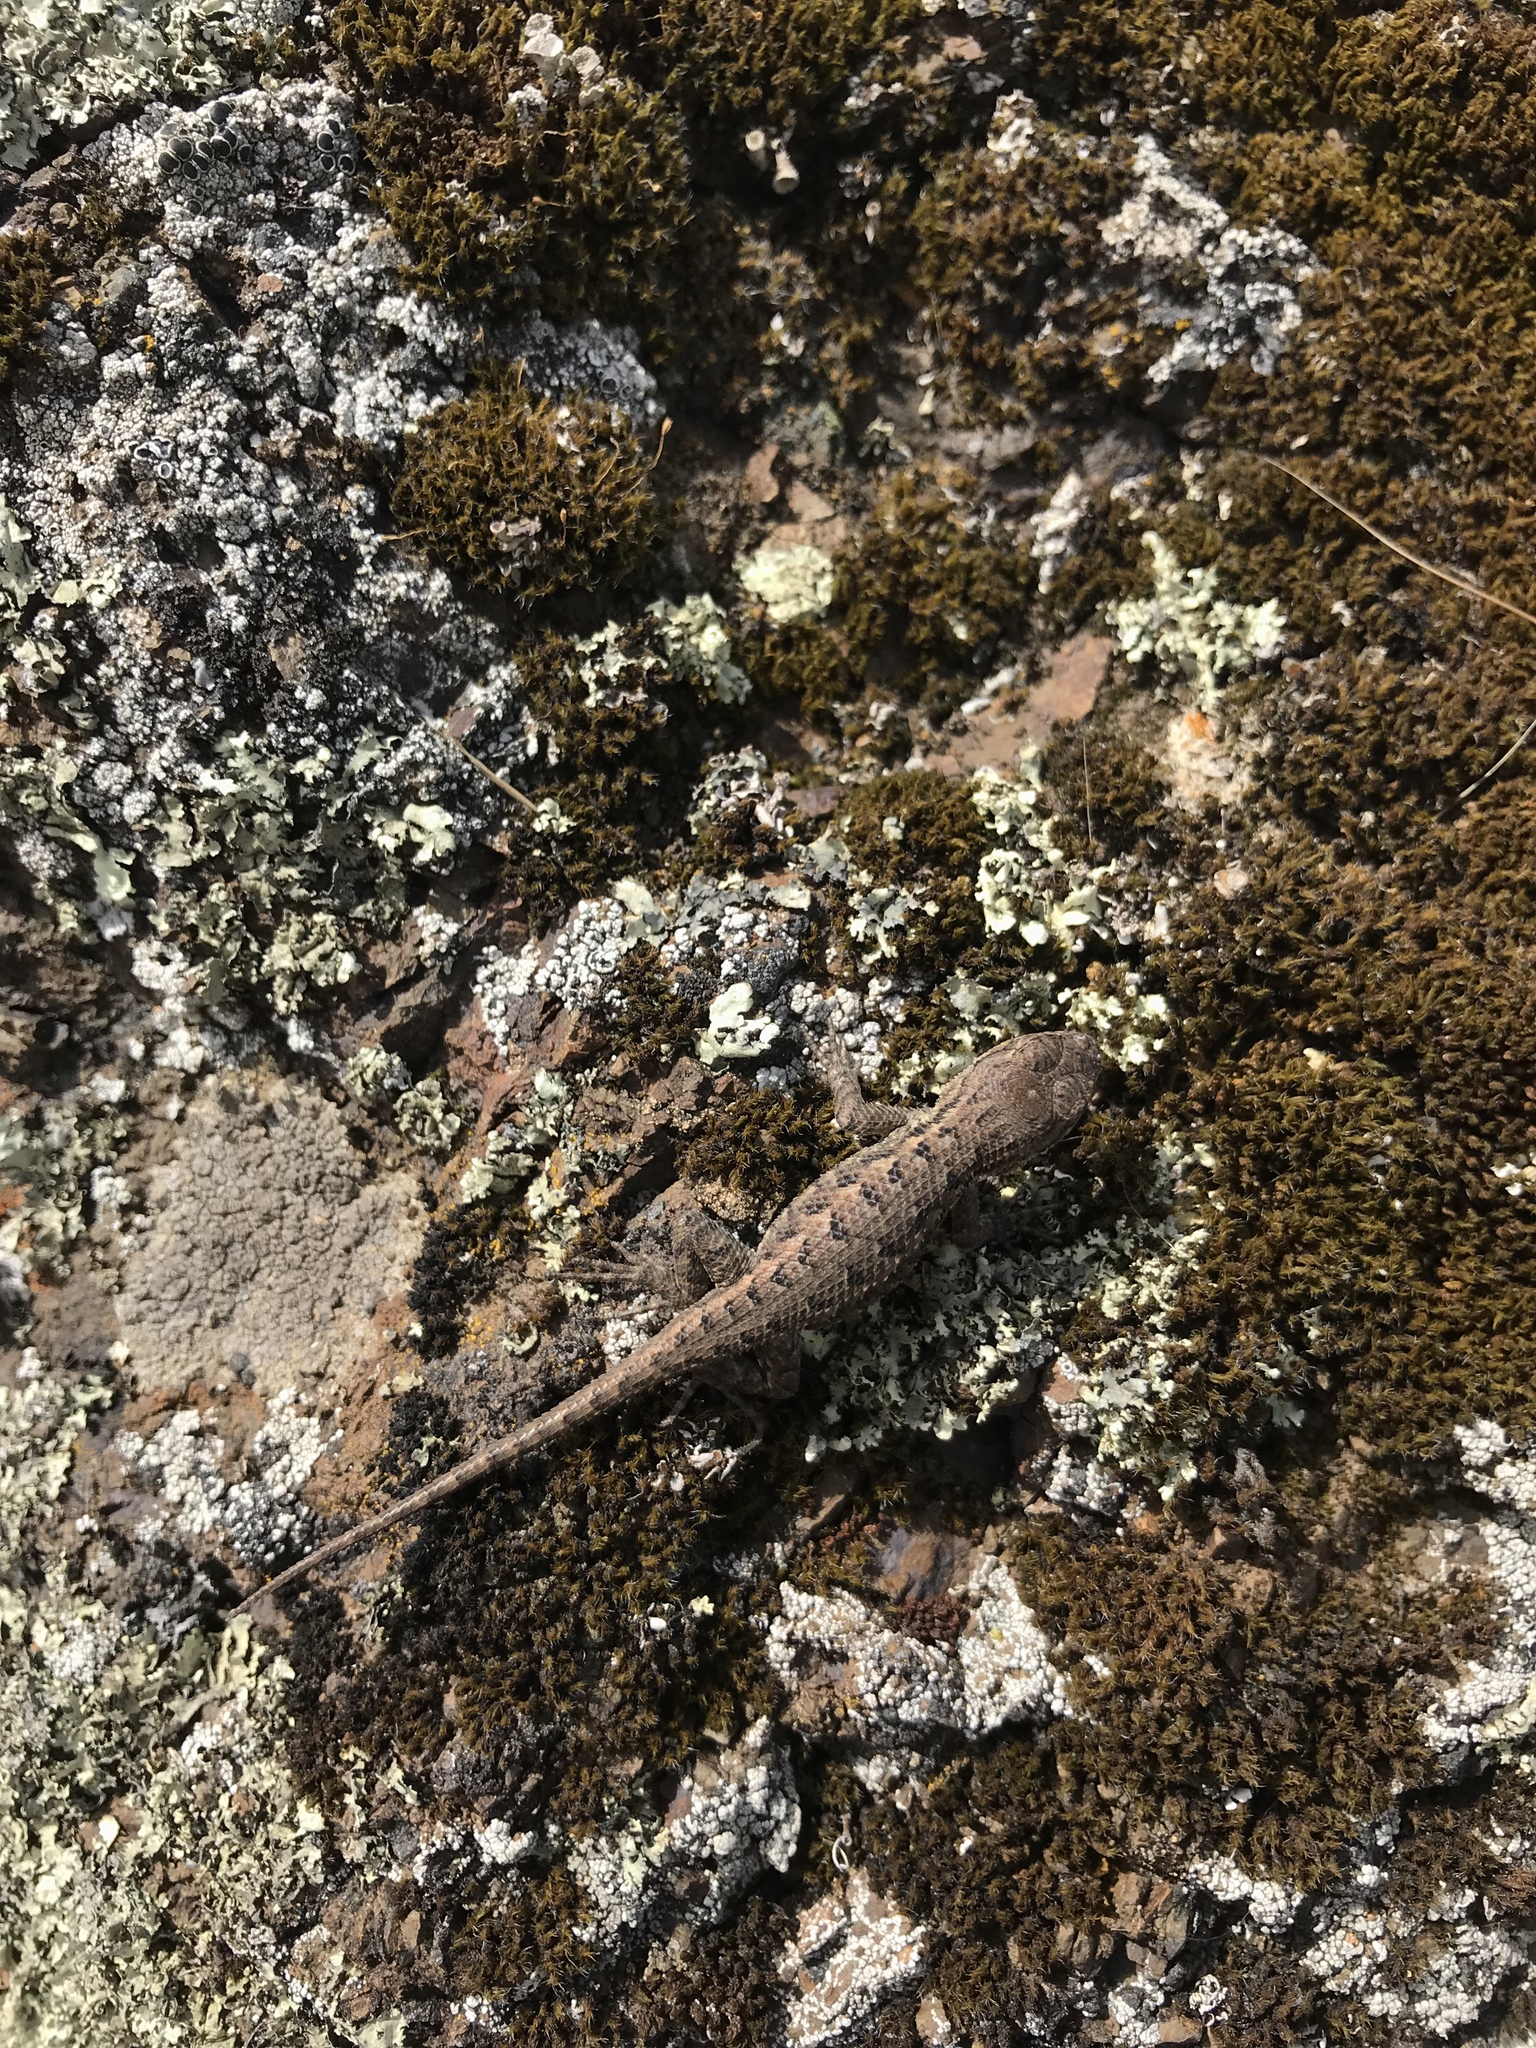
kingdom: Animalia
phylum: Chordata
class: Squamata
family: Phrynosomatidae
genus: Sceloporus
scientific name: Sceloporus occidentalis
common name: Western fence lizard
